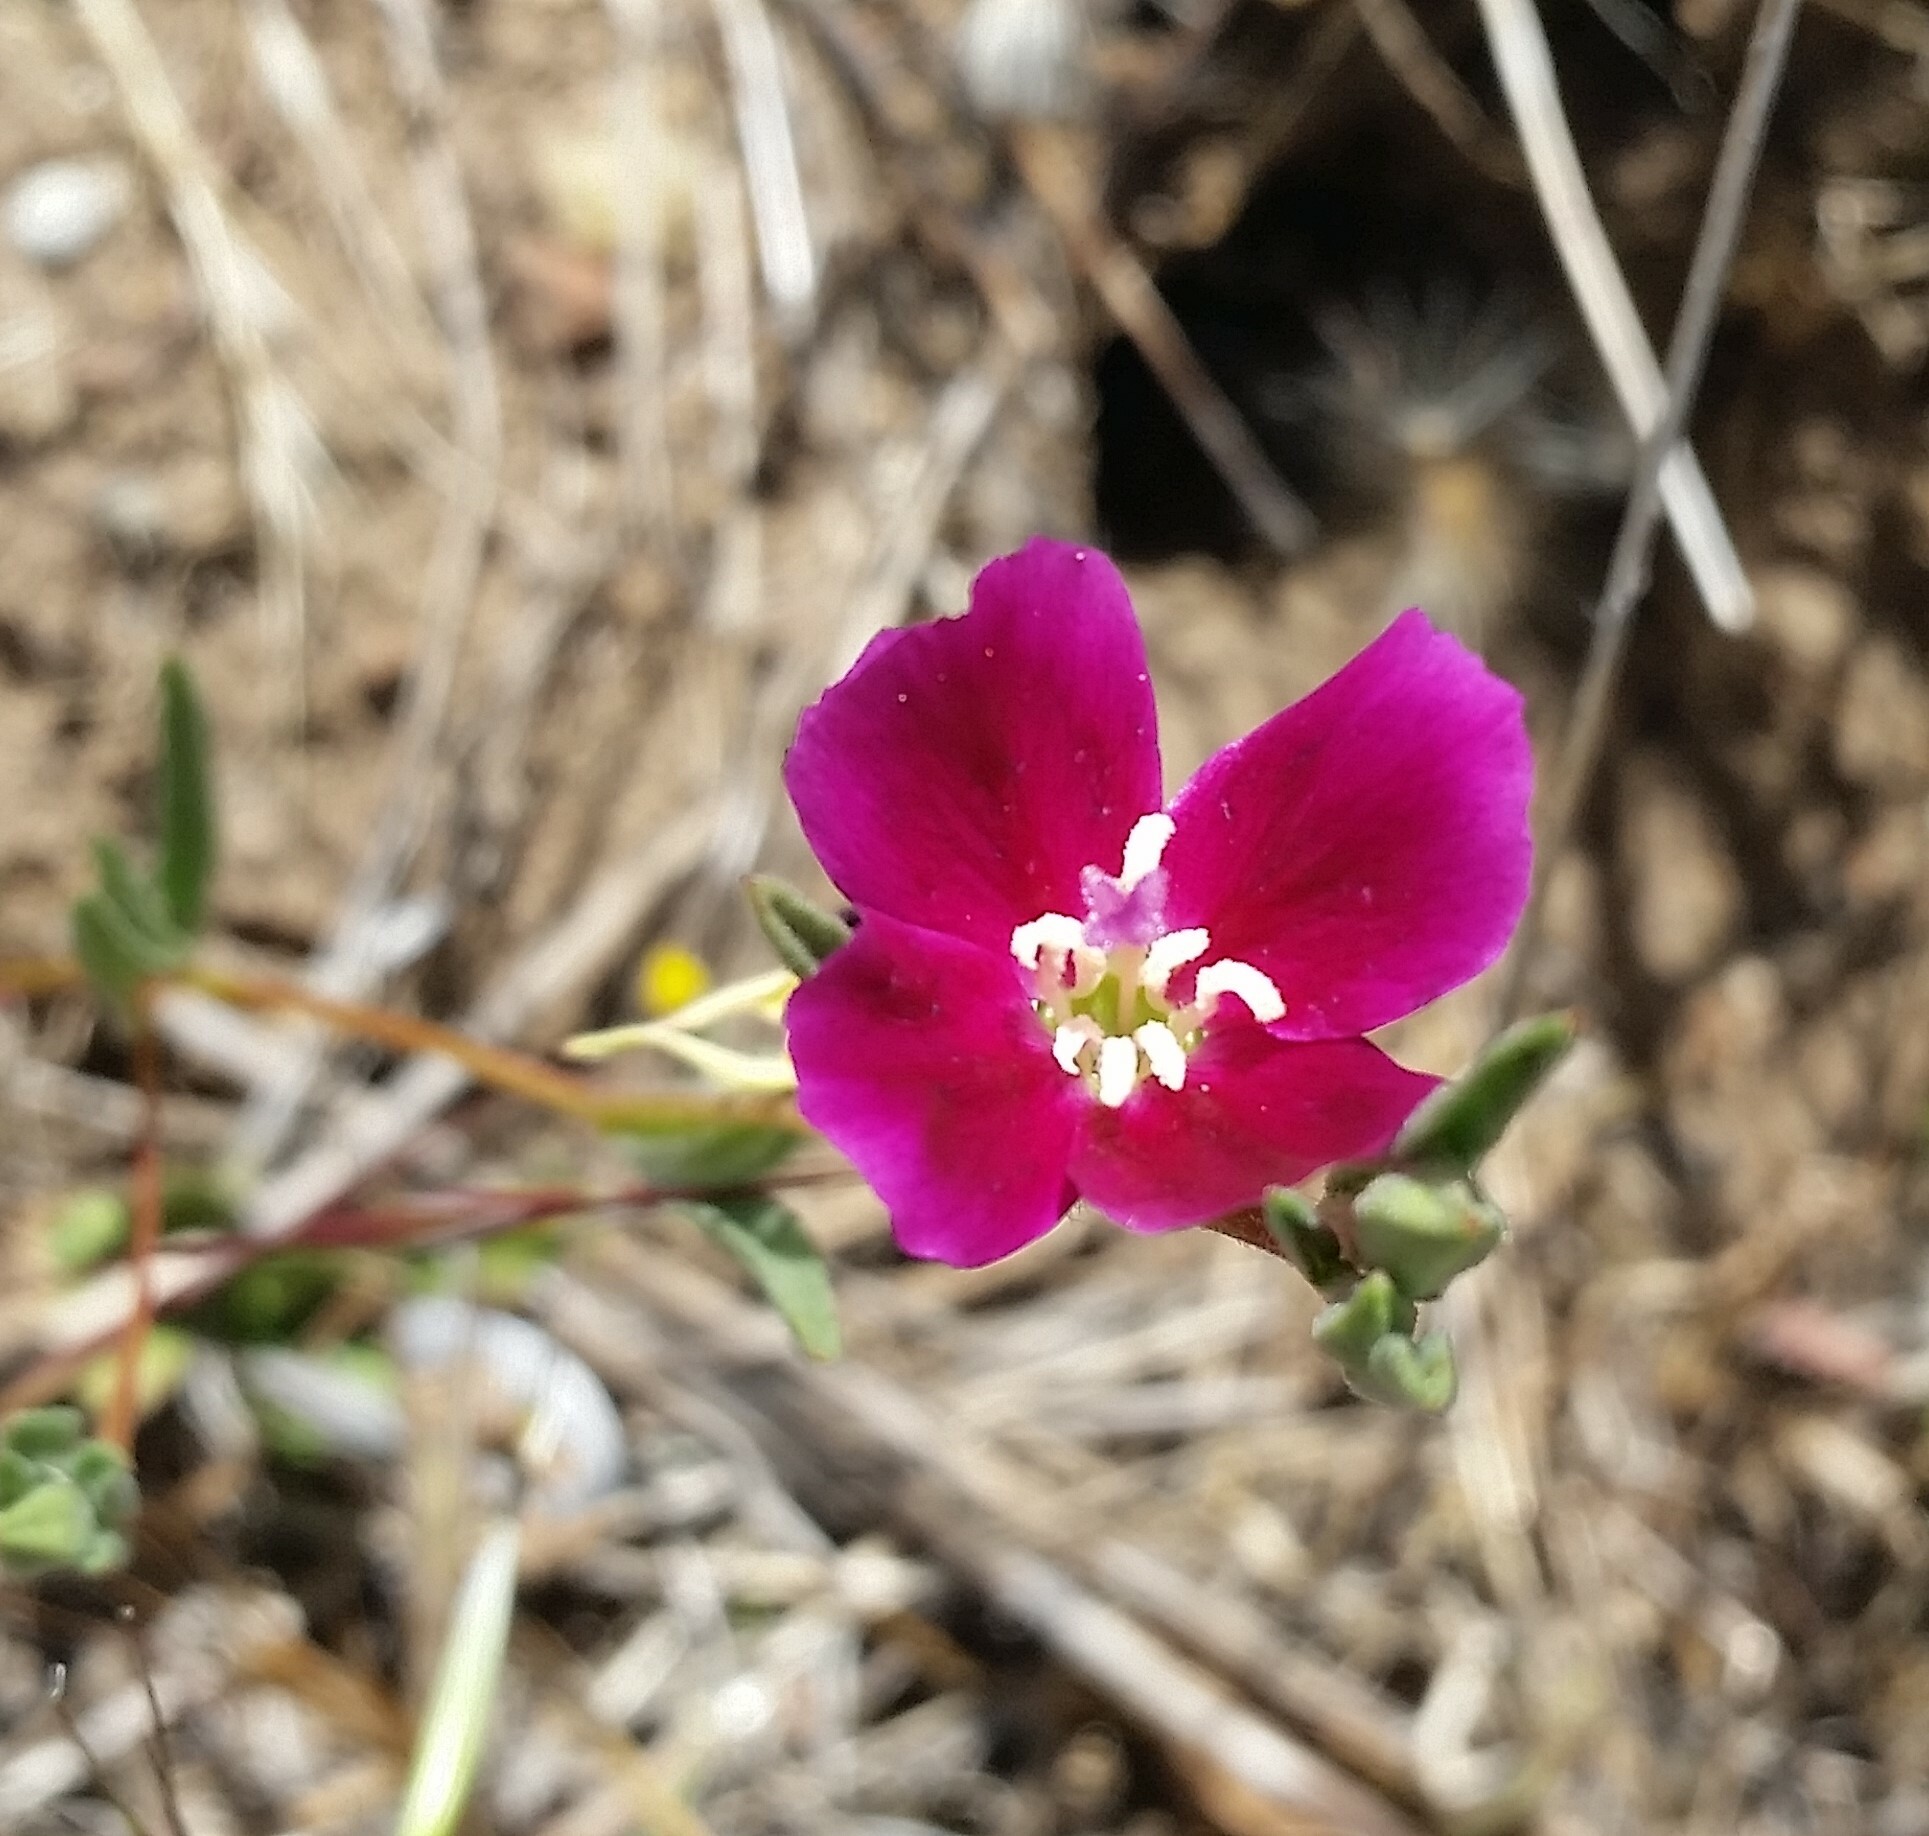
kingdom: Plantae
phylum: Tracheophyta
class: Magnoliopsida
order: Myrtales
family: Onagraceae
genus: Clarkia
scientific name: Clarkia purpurea
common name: Purple clarkia
